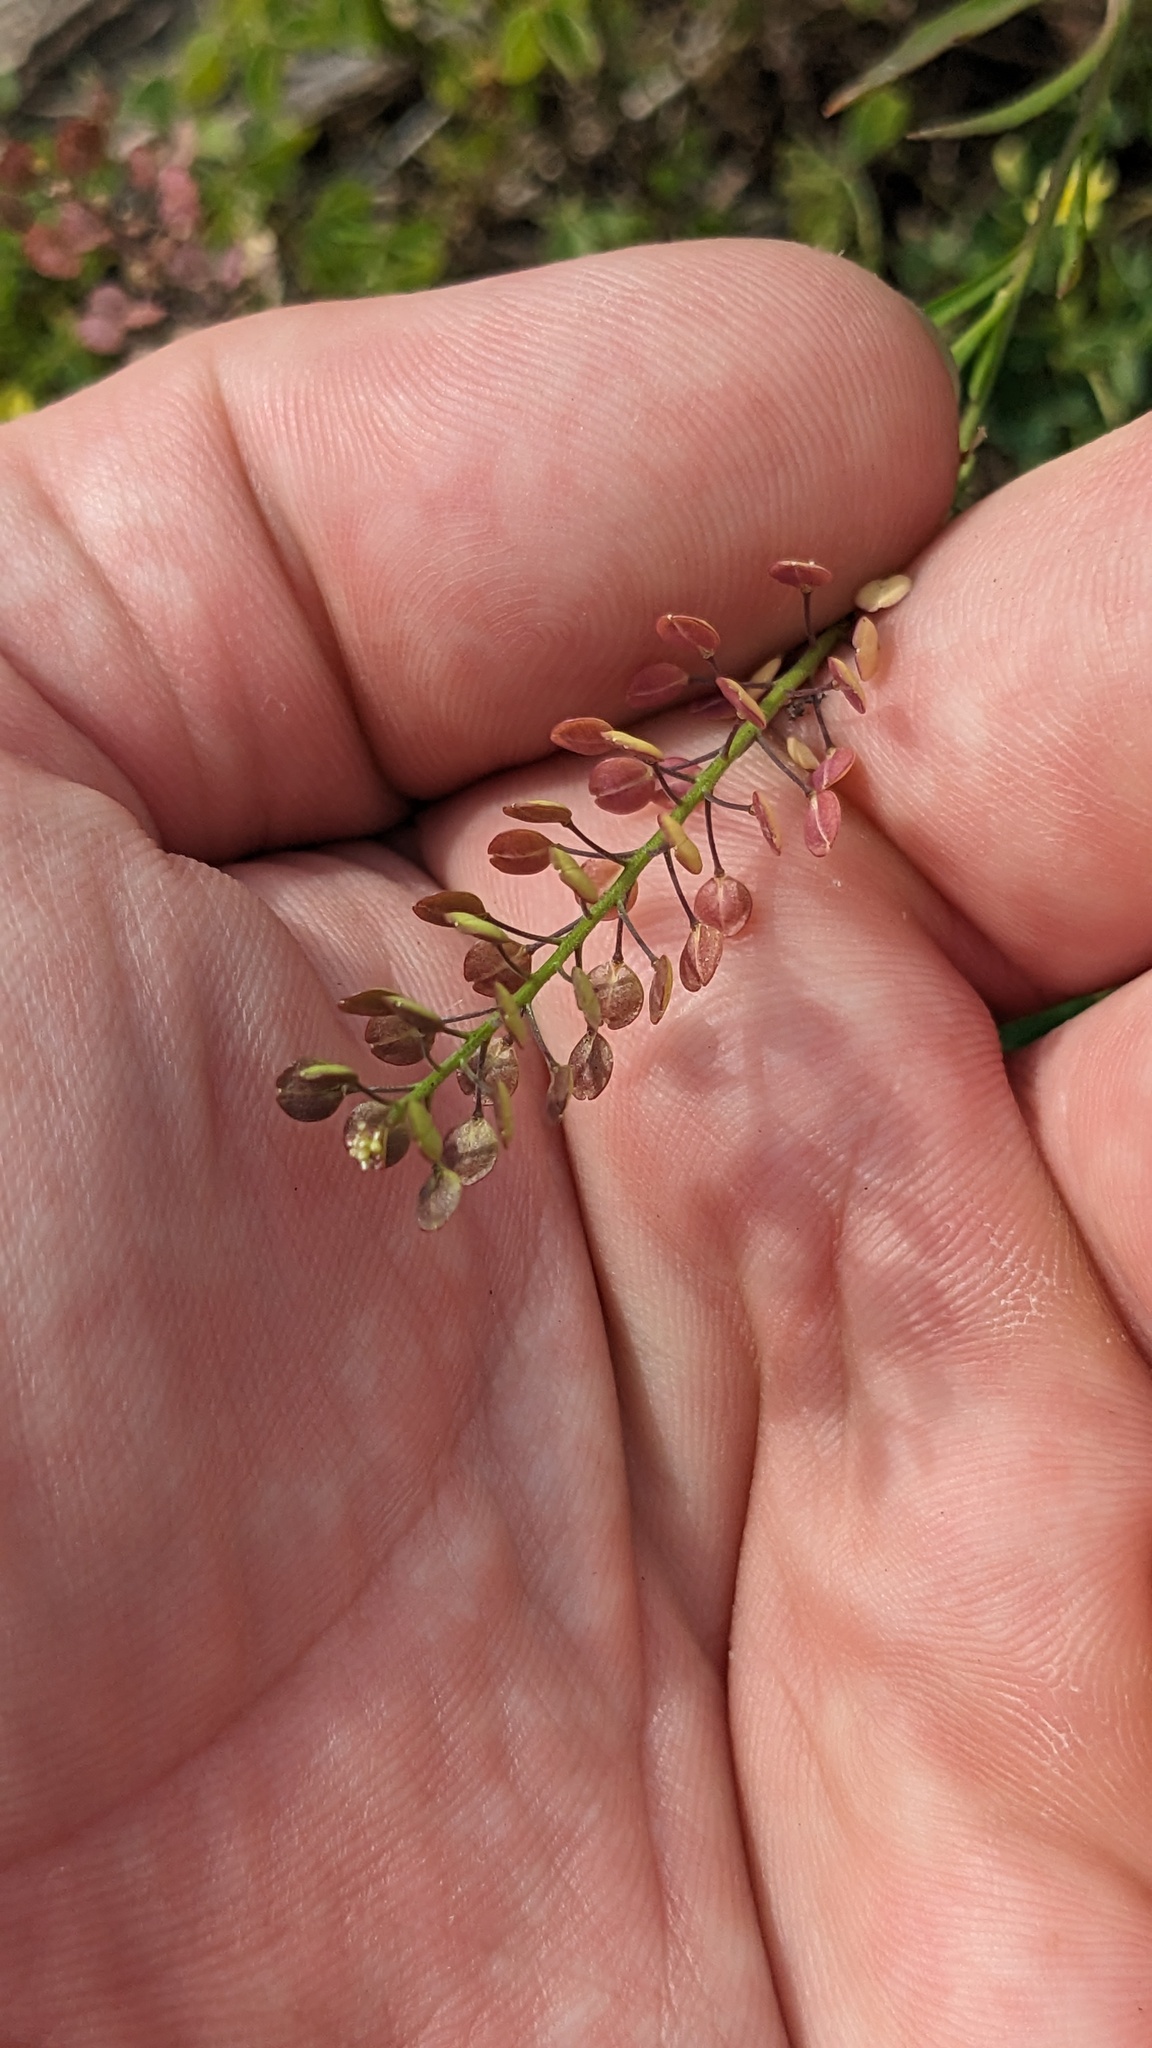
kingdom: Plantae
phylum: Tracheophyta
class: Magnoliopsida
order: Brassicales
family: Brassicaceae
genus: Lepidium
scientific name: Lepidium virginicum
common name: Least pepperwort
